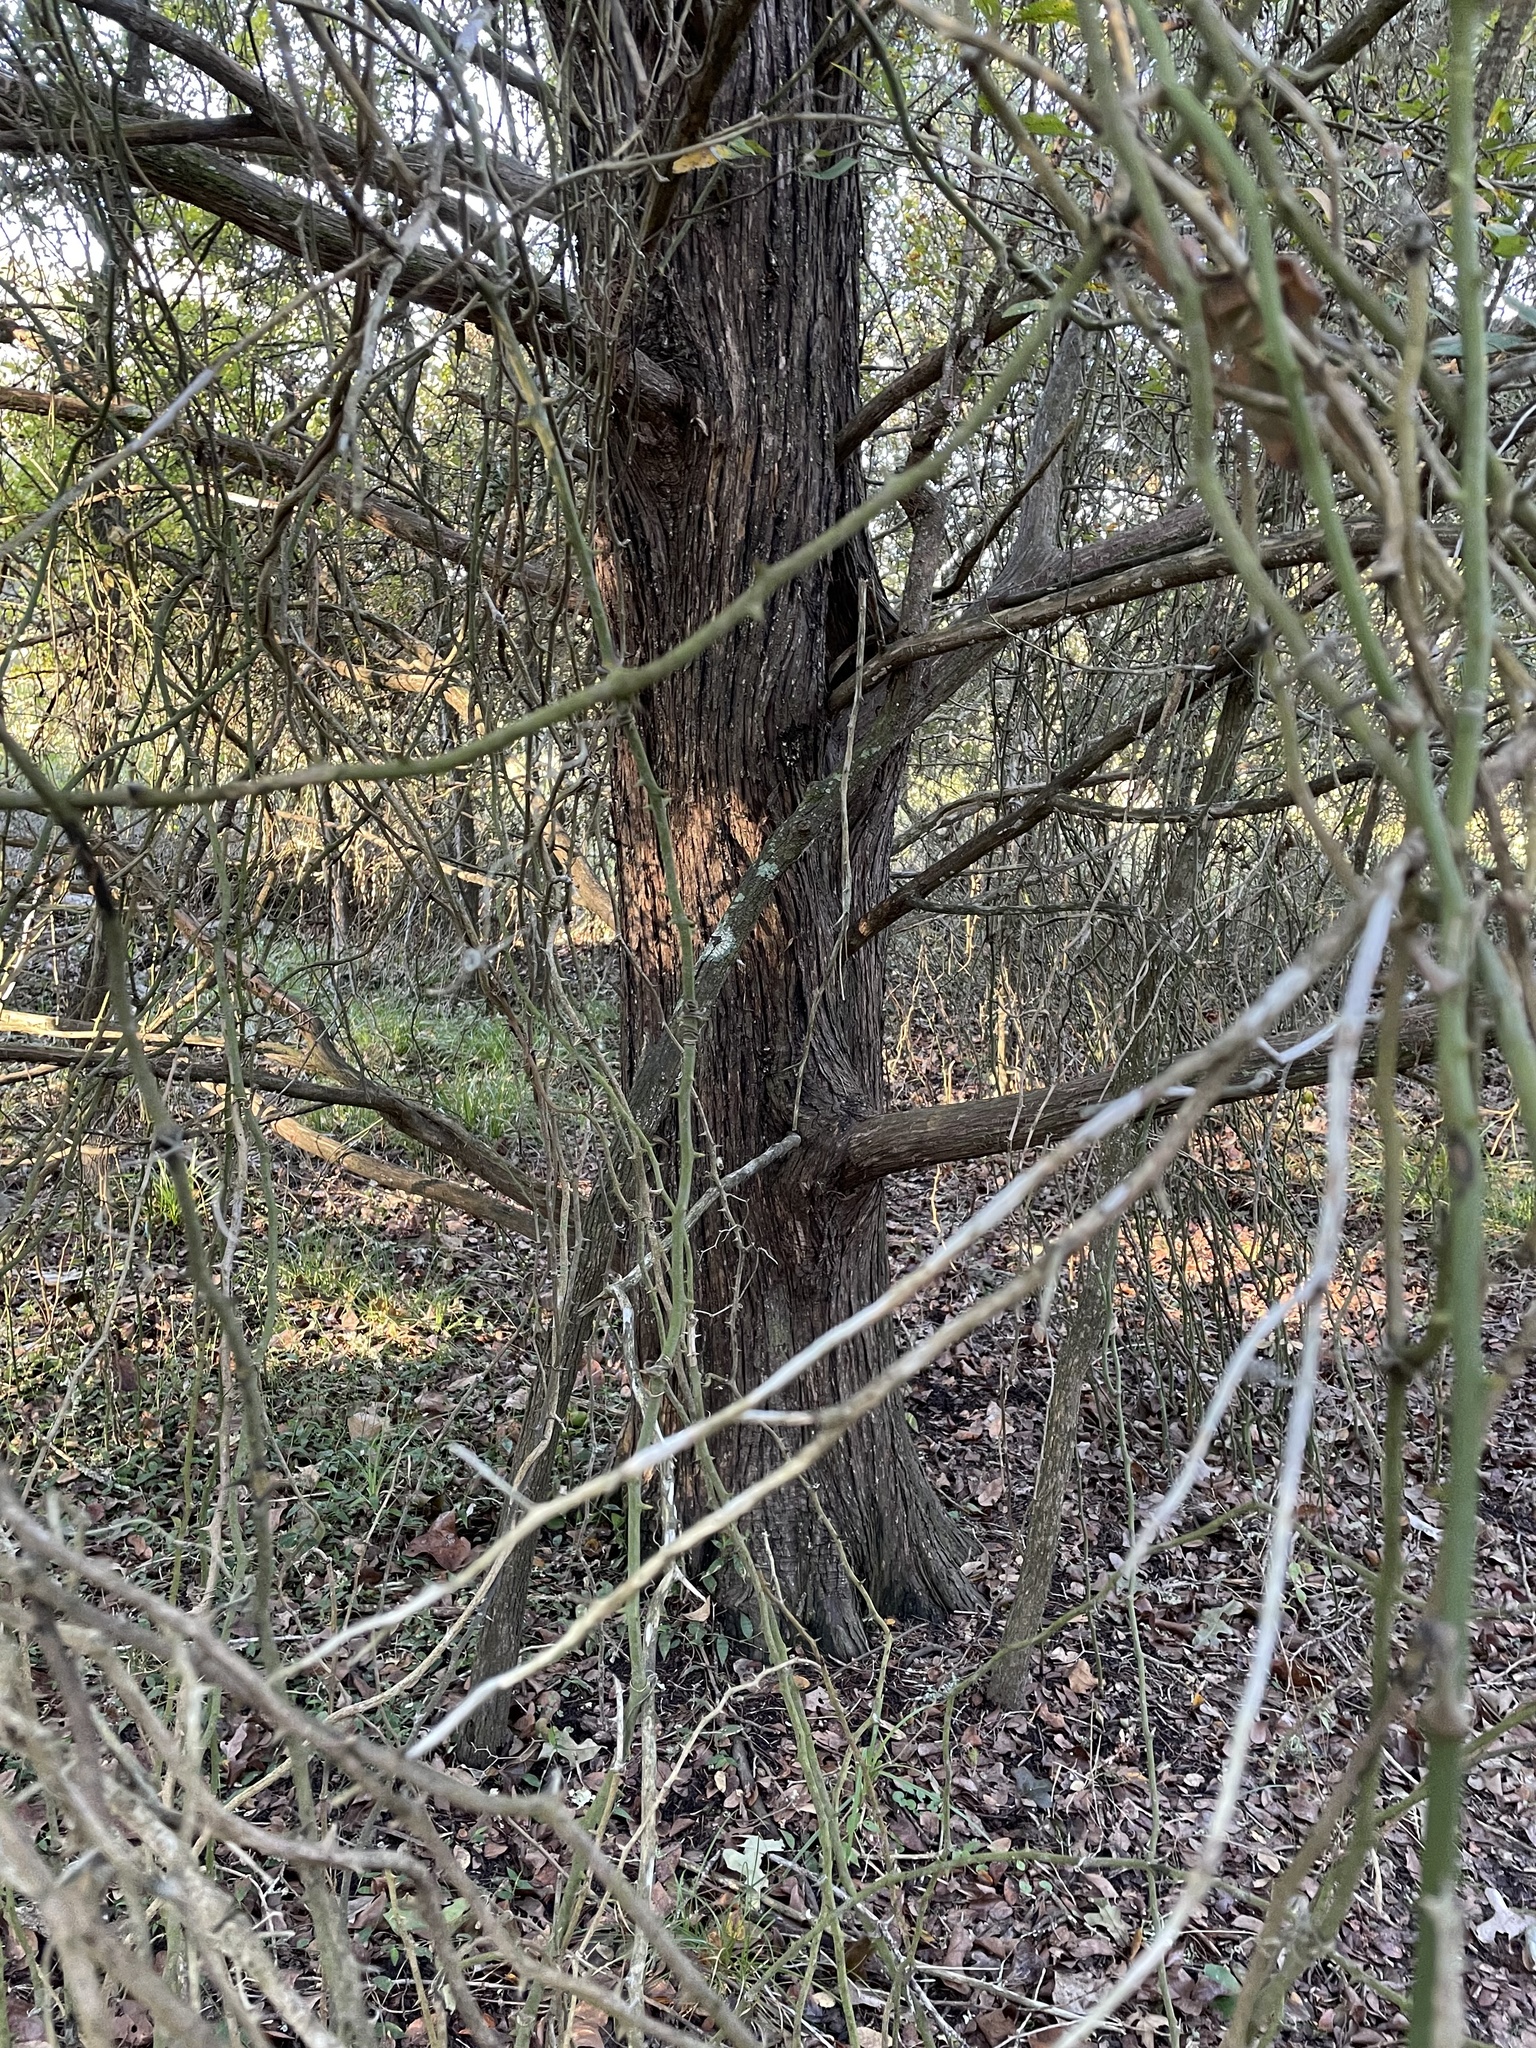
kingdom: Plantae
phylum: Tracheophyta
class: Pinopsida
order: Pinales
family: Cupressaceae
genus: Juniperus
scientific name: Juniperus virginiana
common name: Red juniper
